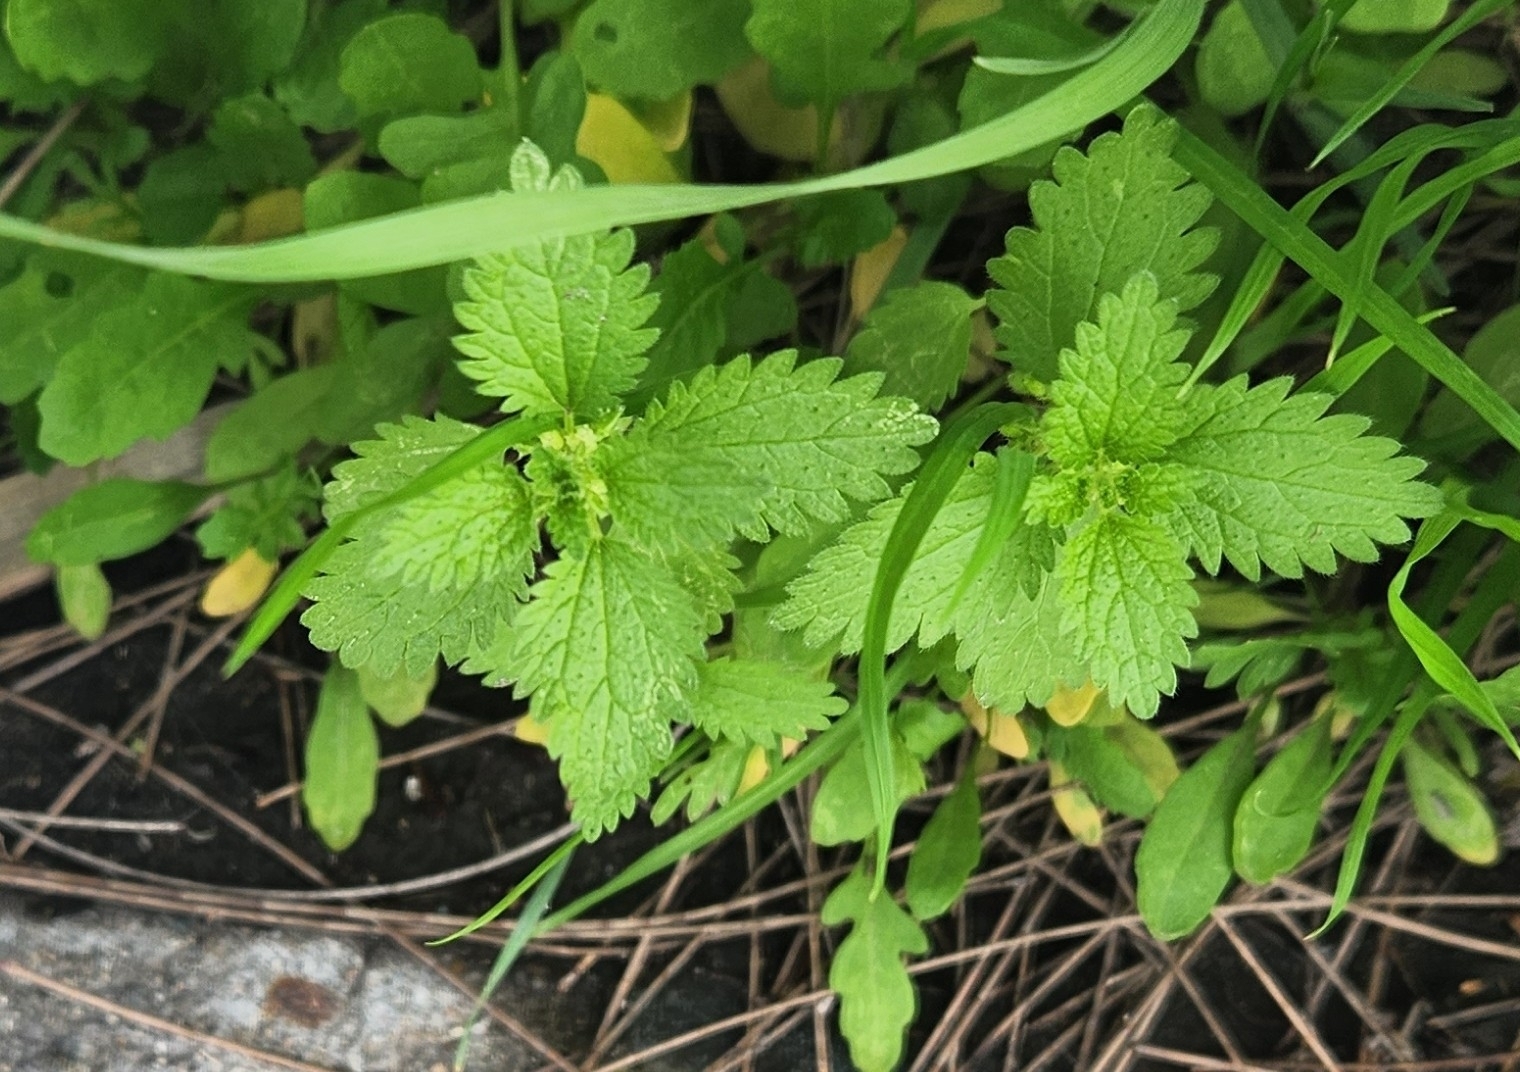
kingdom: Plantae
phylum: Tracheophyta
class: Magnoliopsida
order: Rosales
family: Urticaceae
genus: Urtica
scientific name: Urtica urens
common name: Dwarf nettle
